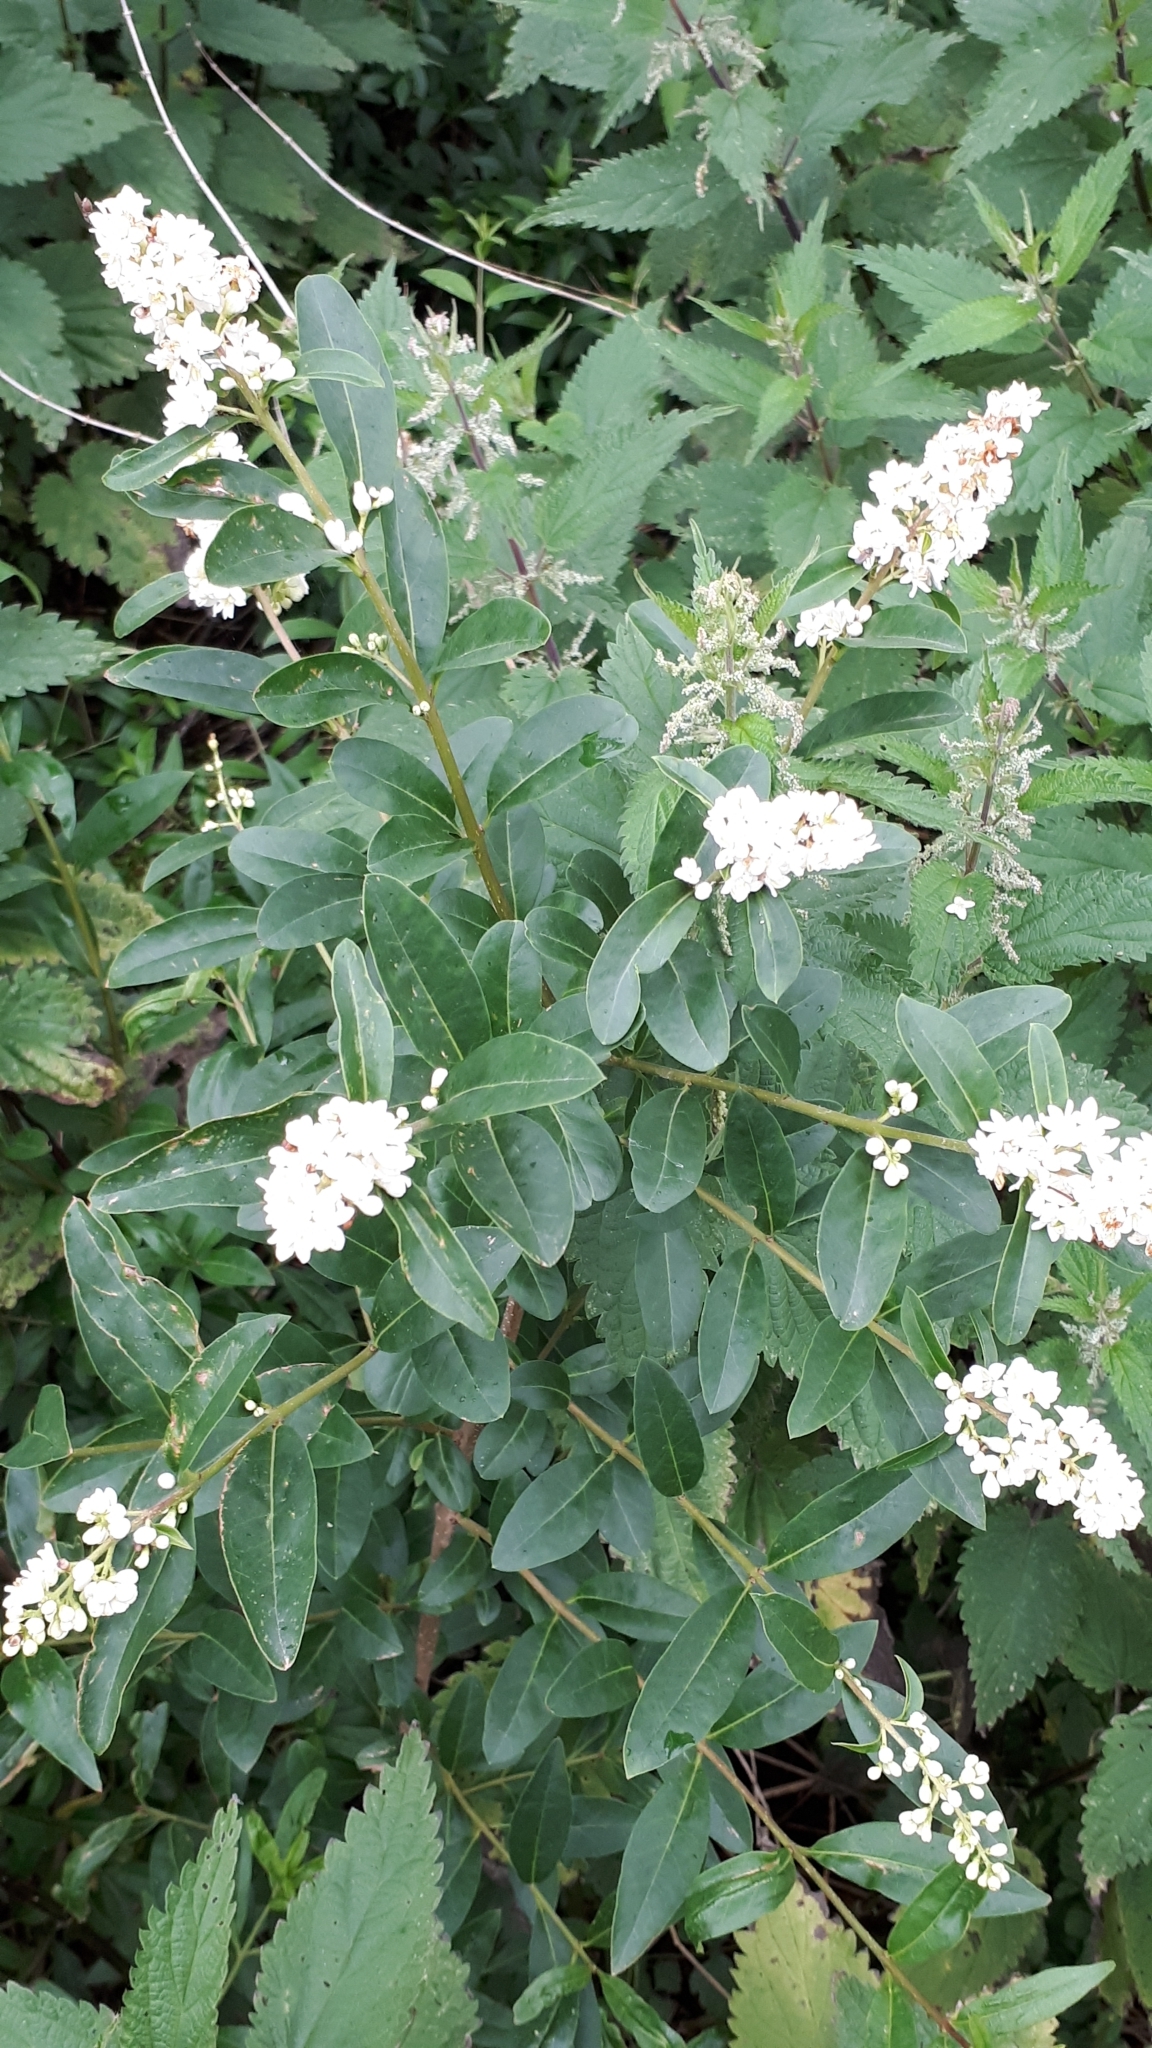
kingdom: Plantae
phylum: Tracheophyta
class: Magnoliopsida
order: Lamiales
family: Oleaceae
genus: Ligustrum
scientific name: Ligustrum vulgare
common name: Wild privet
